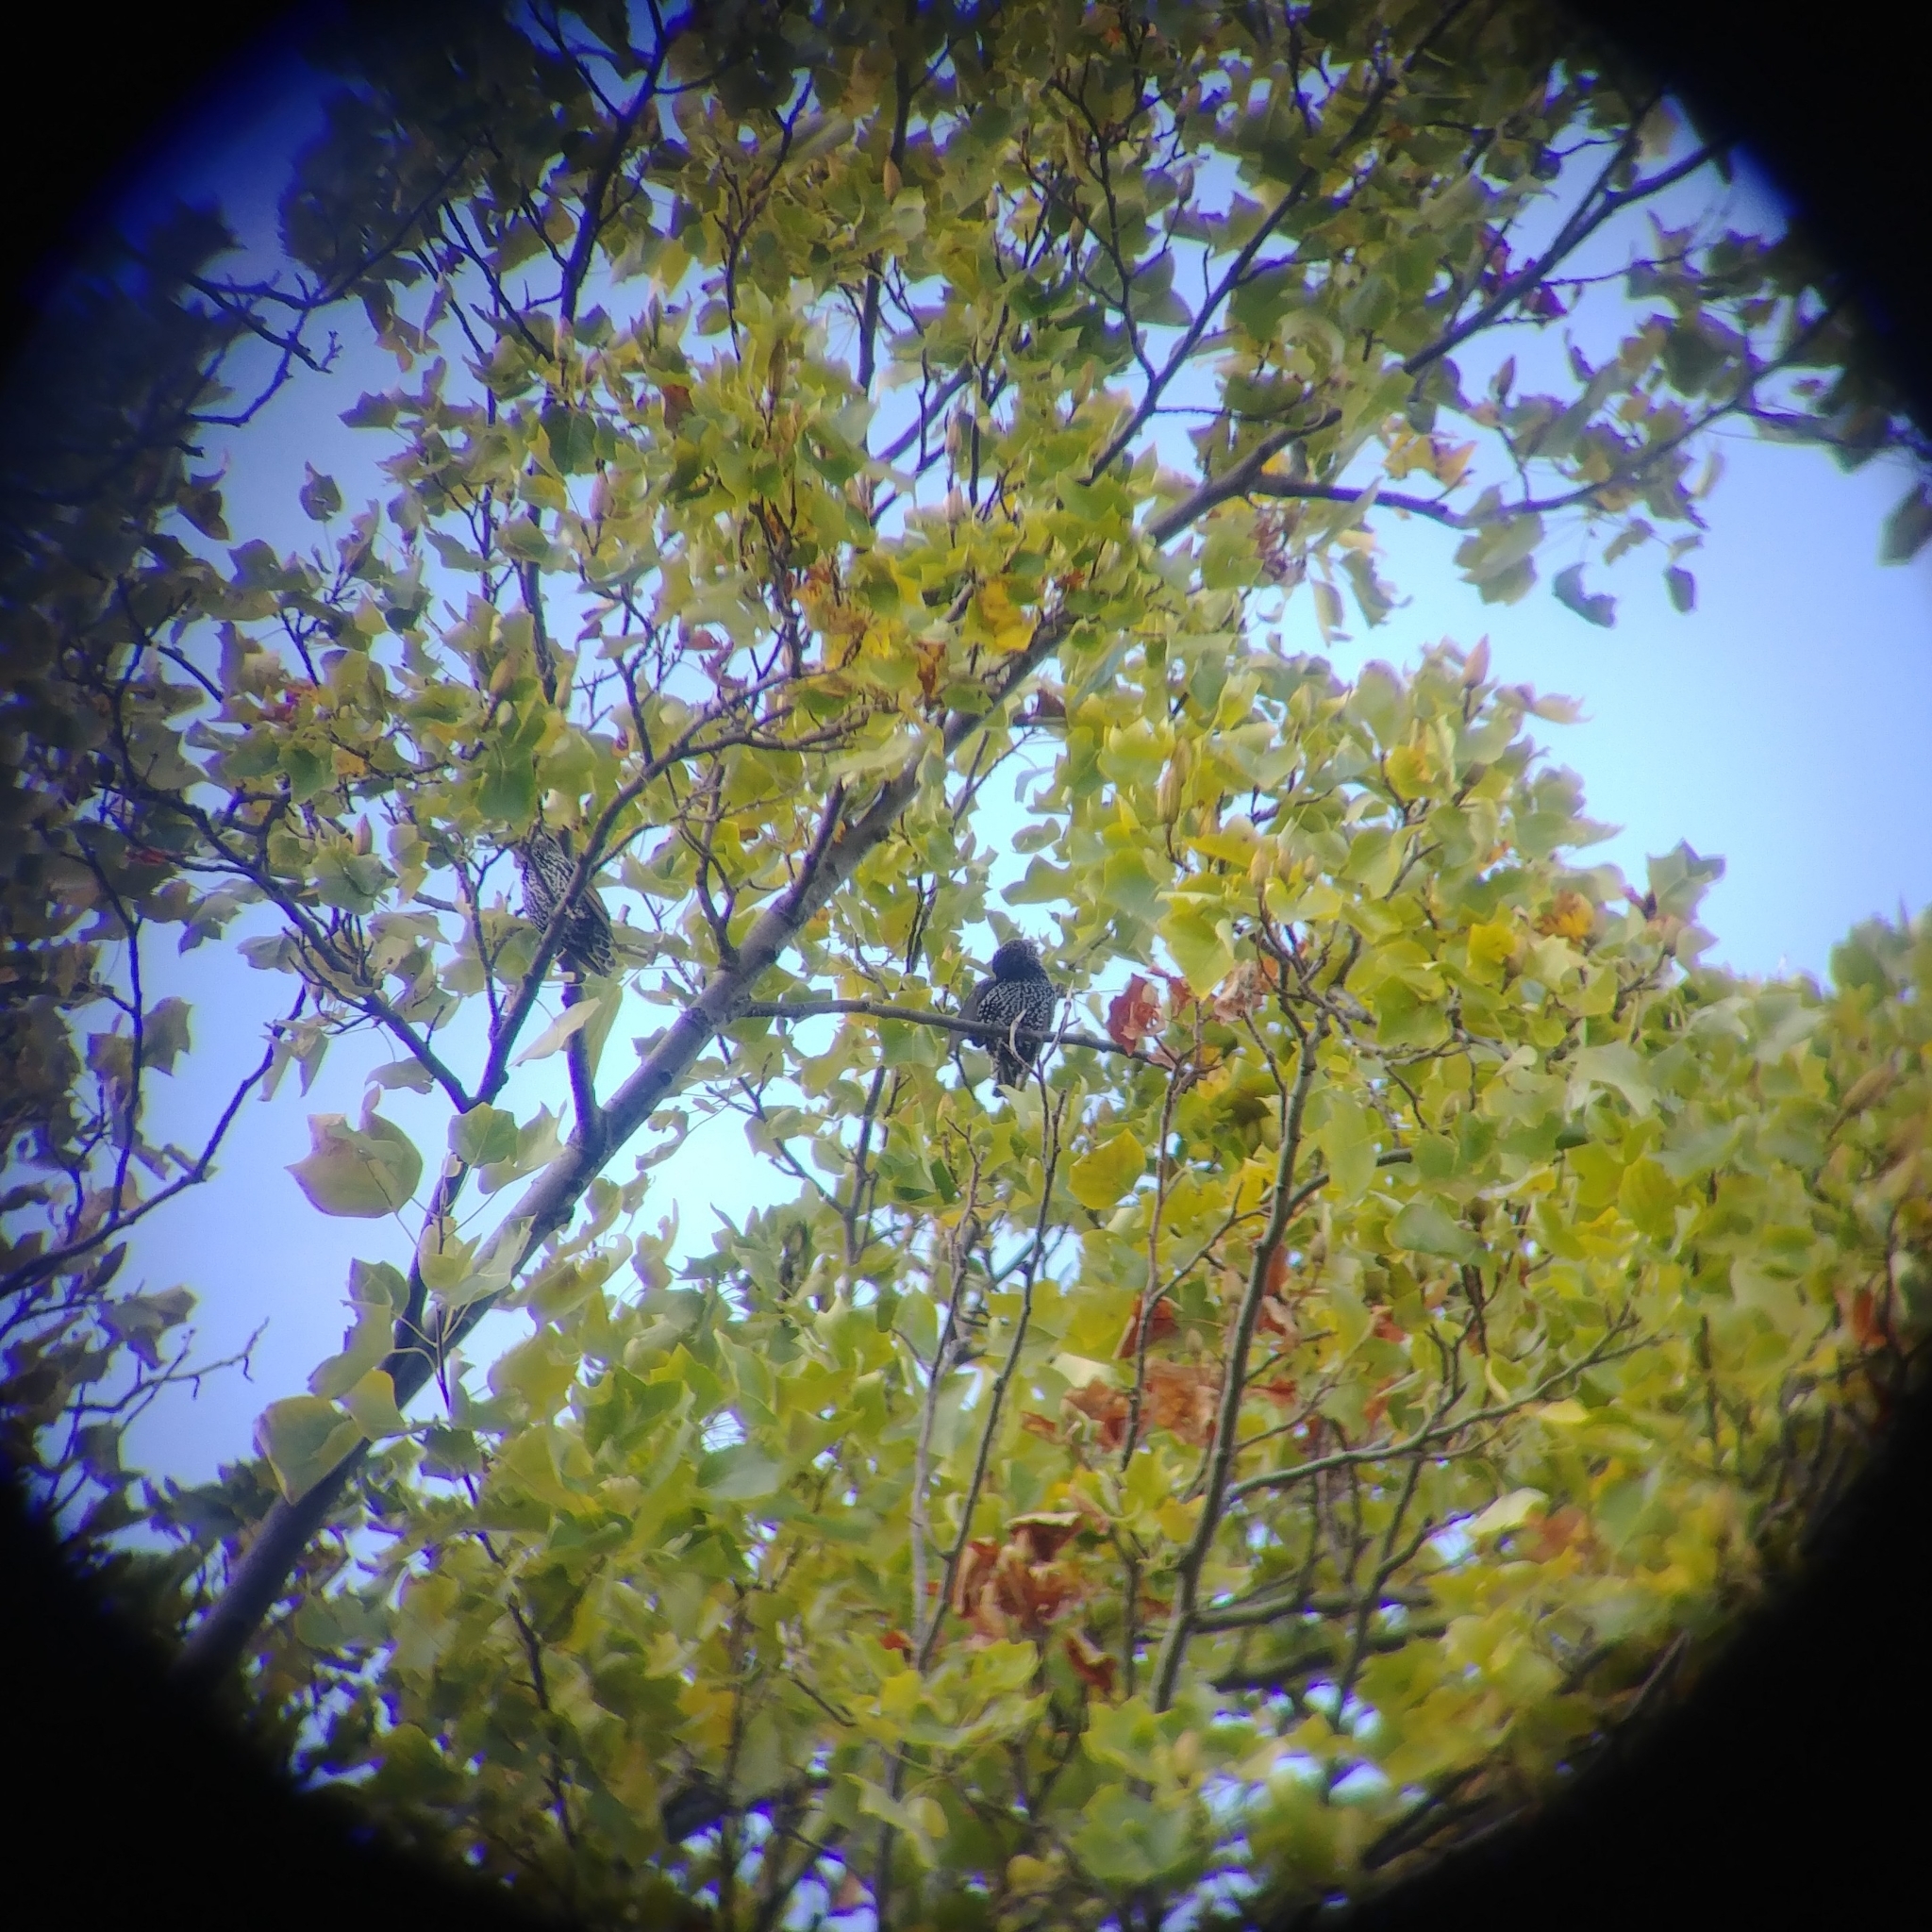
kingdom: Animalia
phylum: Chordata
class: Aves
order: Passeriformes
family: Sturnidae
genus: Sturnus
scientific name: Sturnus vulgaris
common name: Common starling
